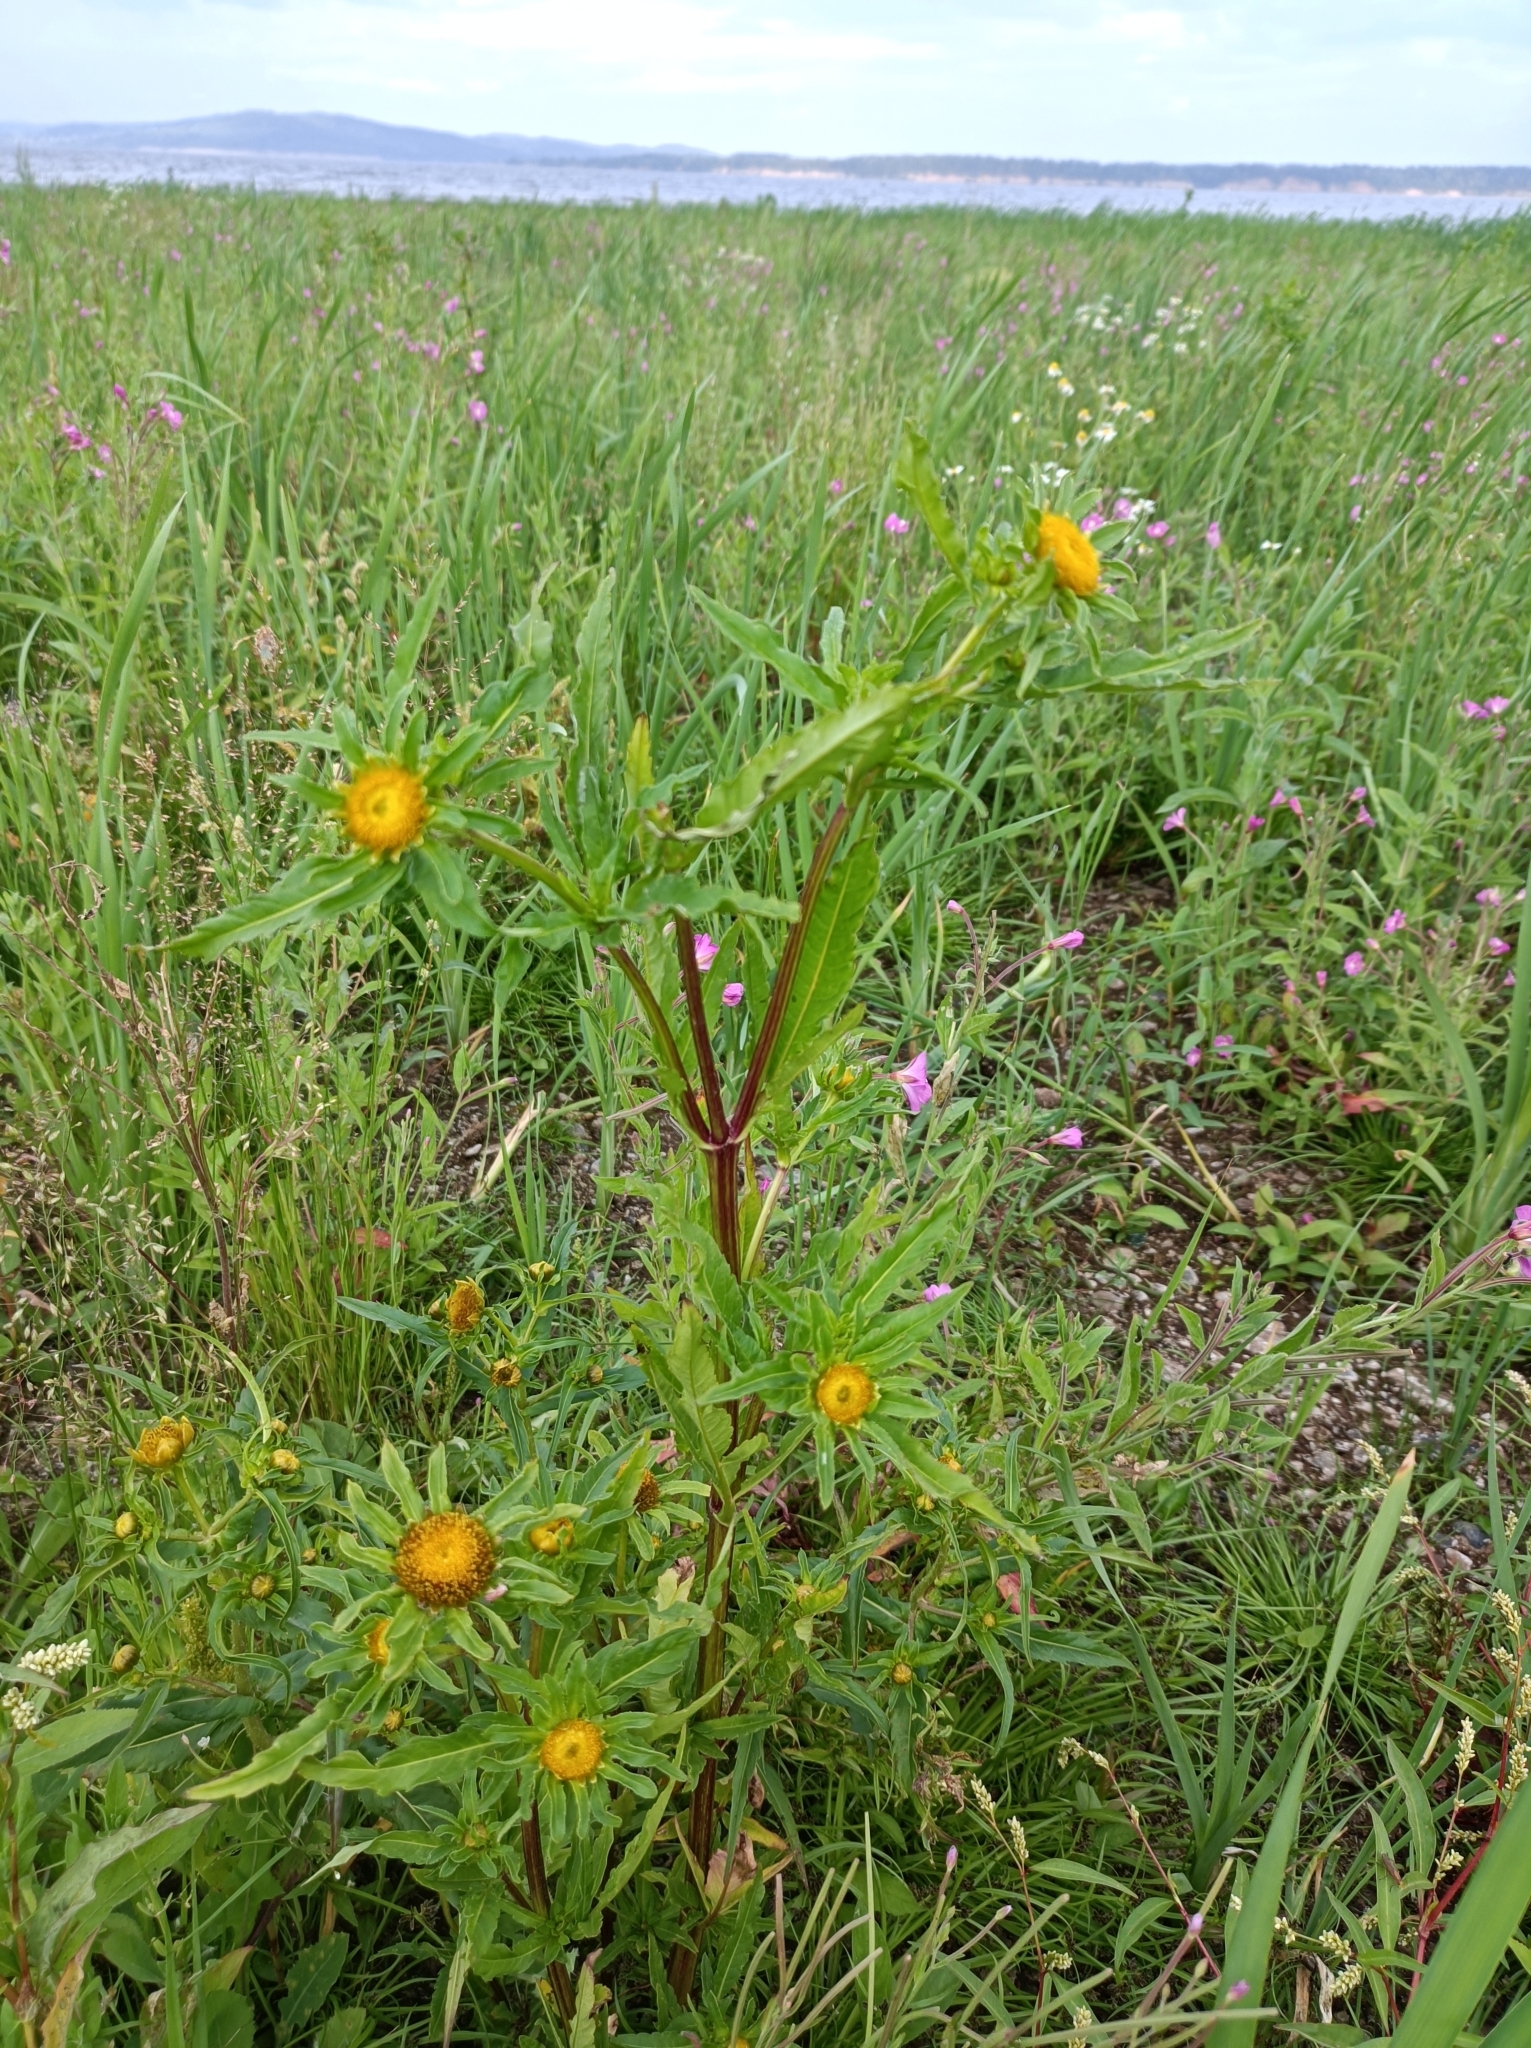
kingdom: Plantae
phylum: Tracheophyta
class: Magnoliopsida
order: Asterales
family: Asteraceae
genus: Bidens
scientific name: Bidens radiata
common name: Radiating bur-marigold
